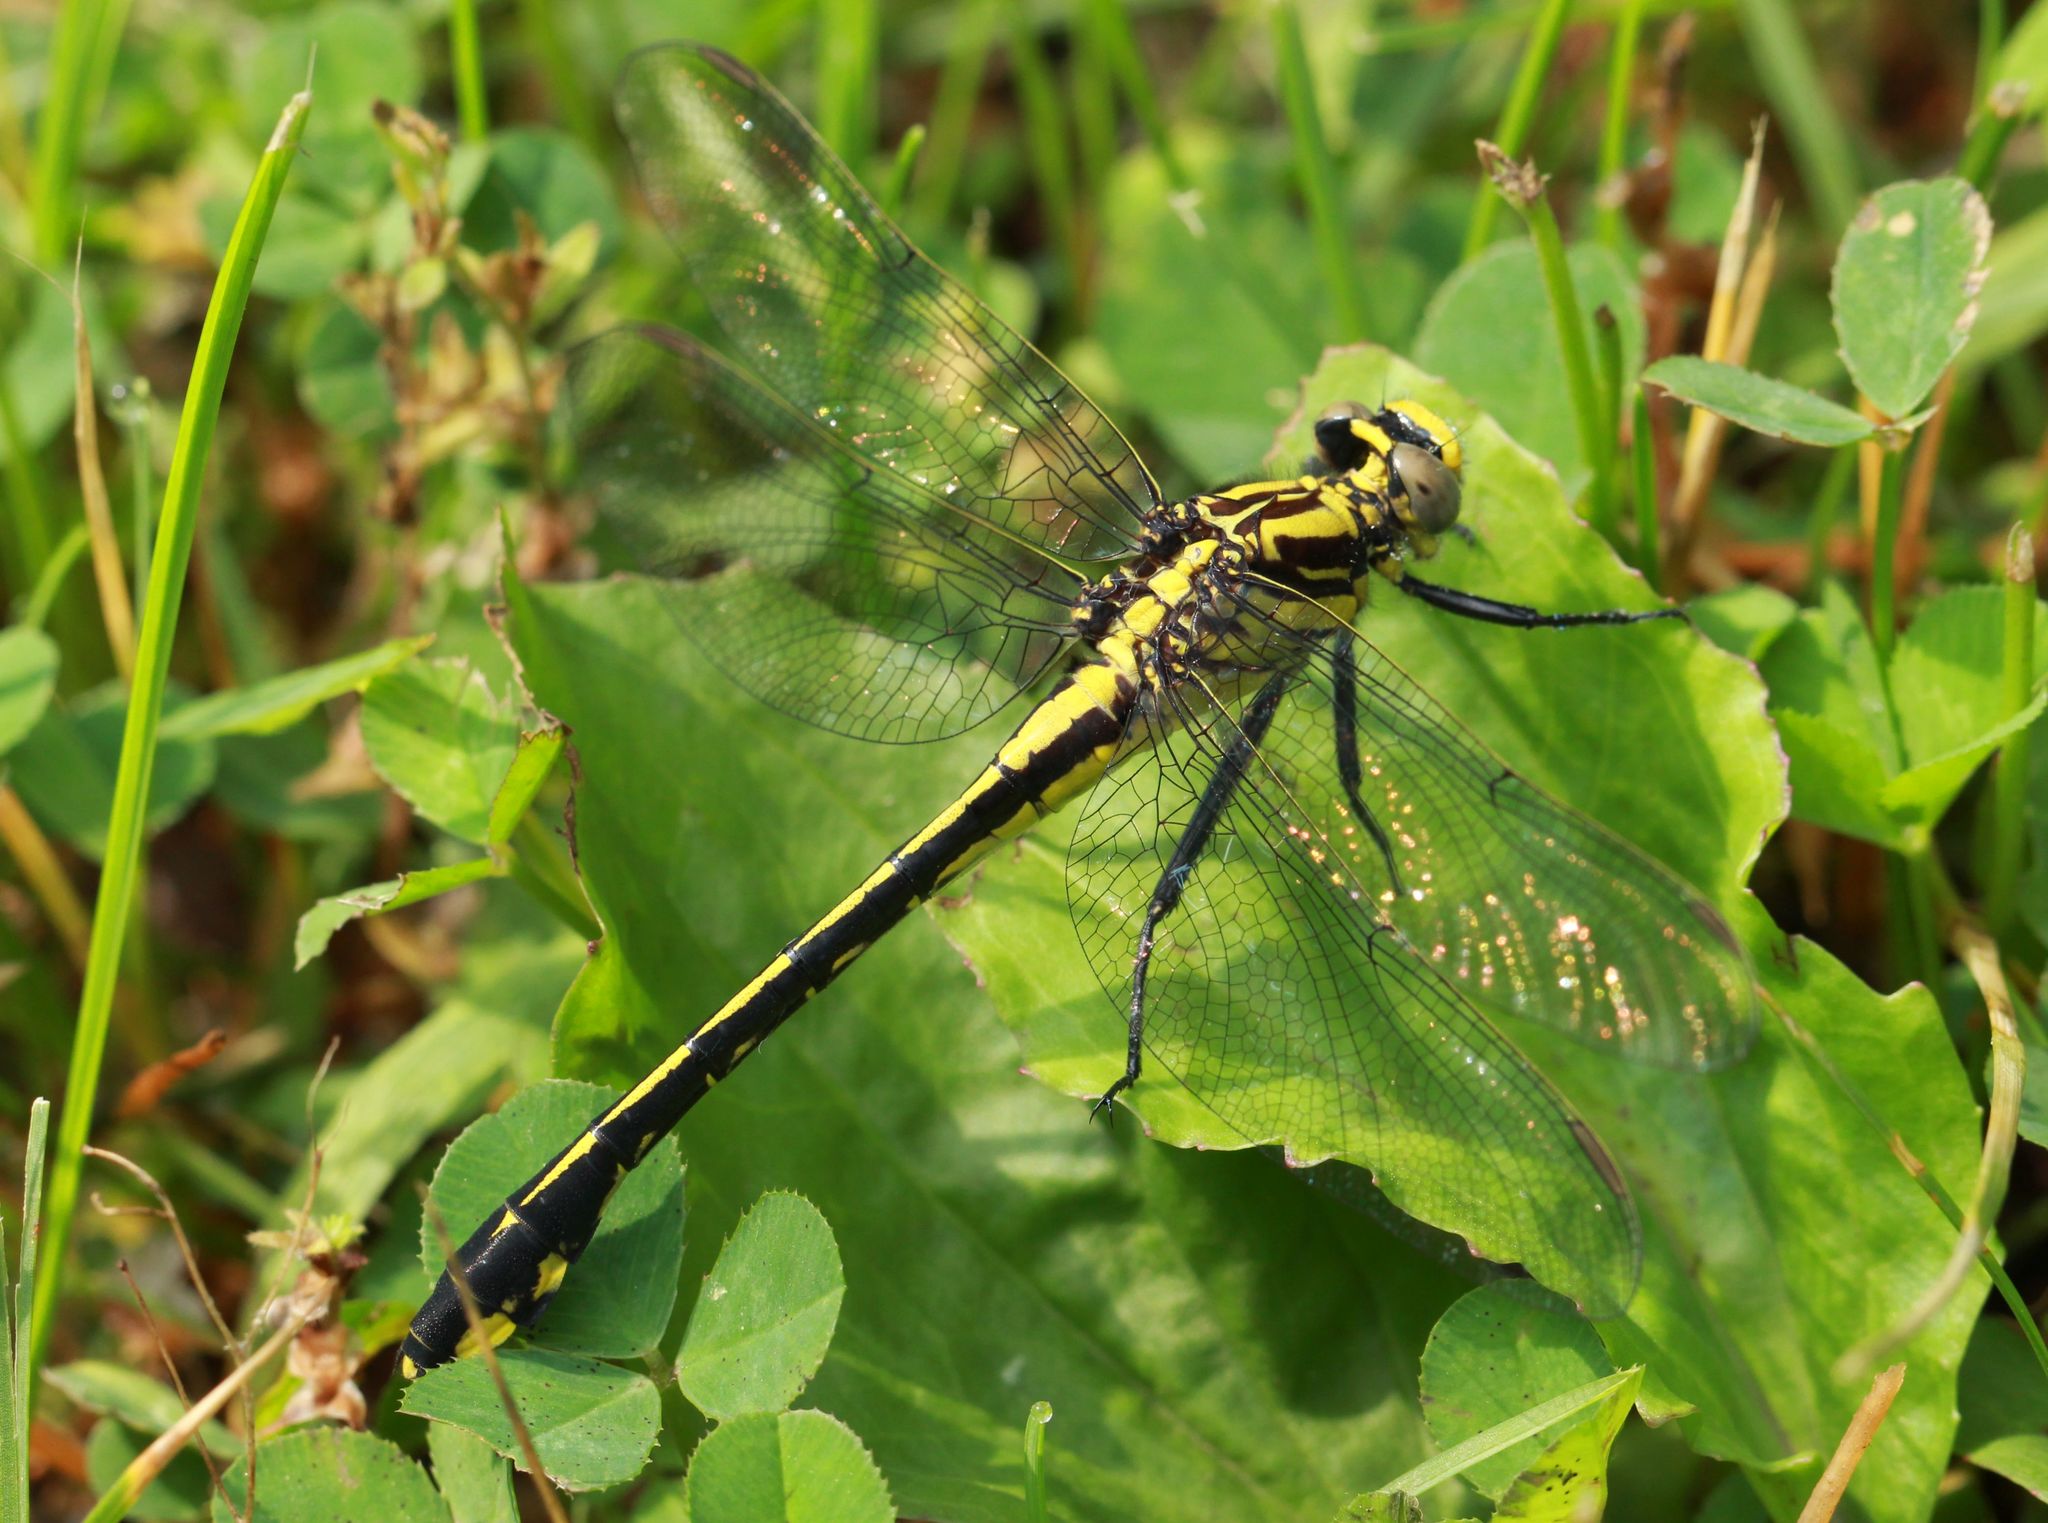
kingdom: Animalia
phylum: Arthropoda
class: Insecta
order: Odonata
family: Gomphidae
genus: Gomphurus
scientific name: Gomphurus fraternus
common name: Midland clubtail
